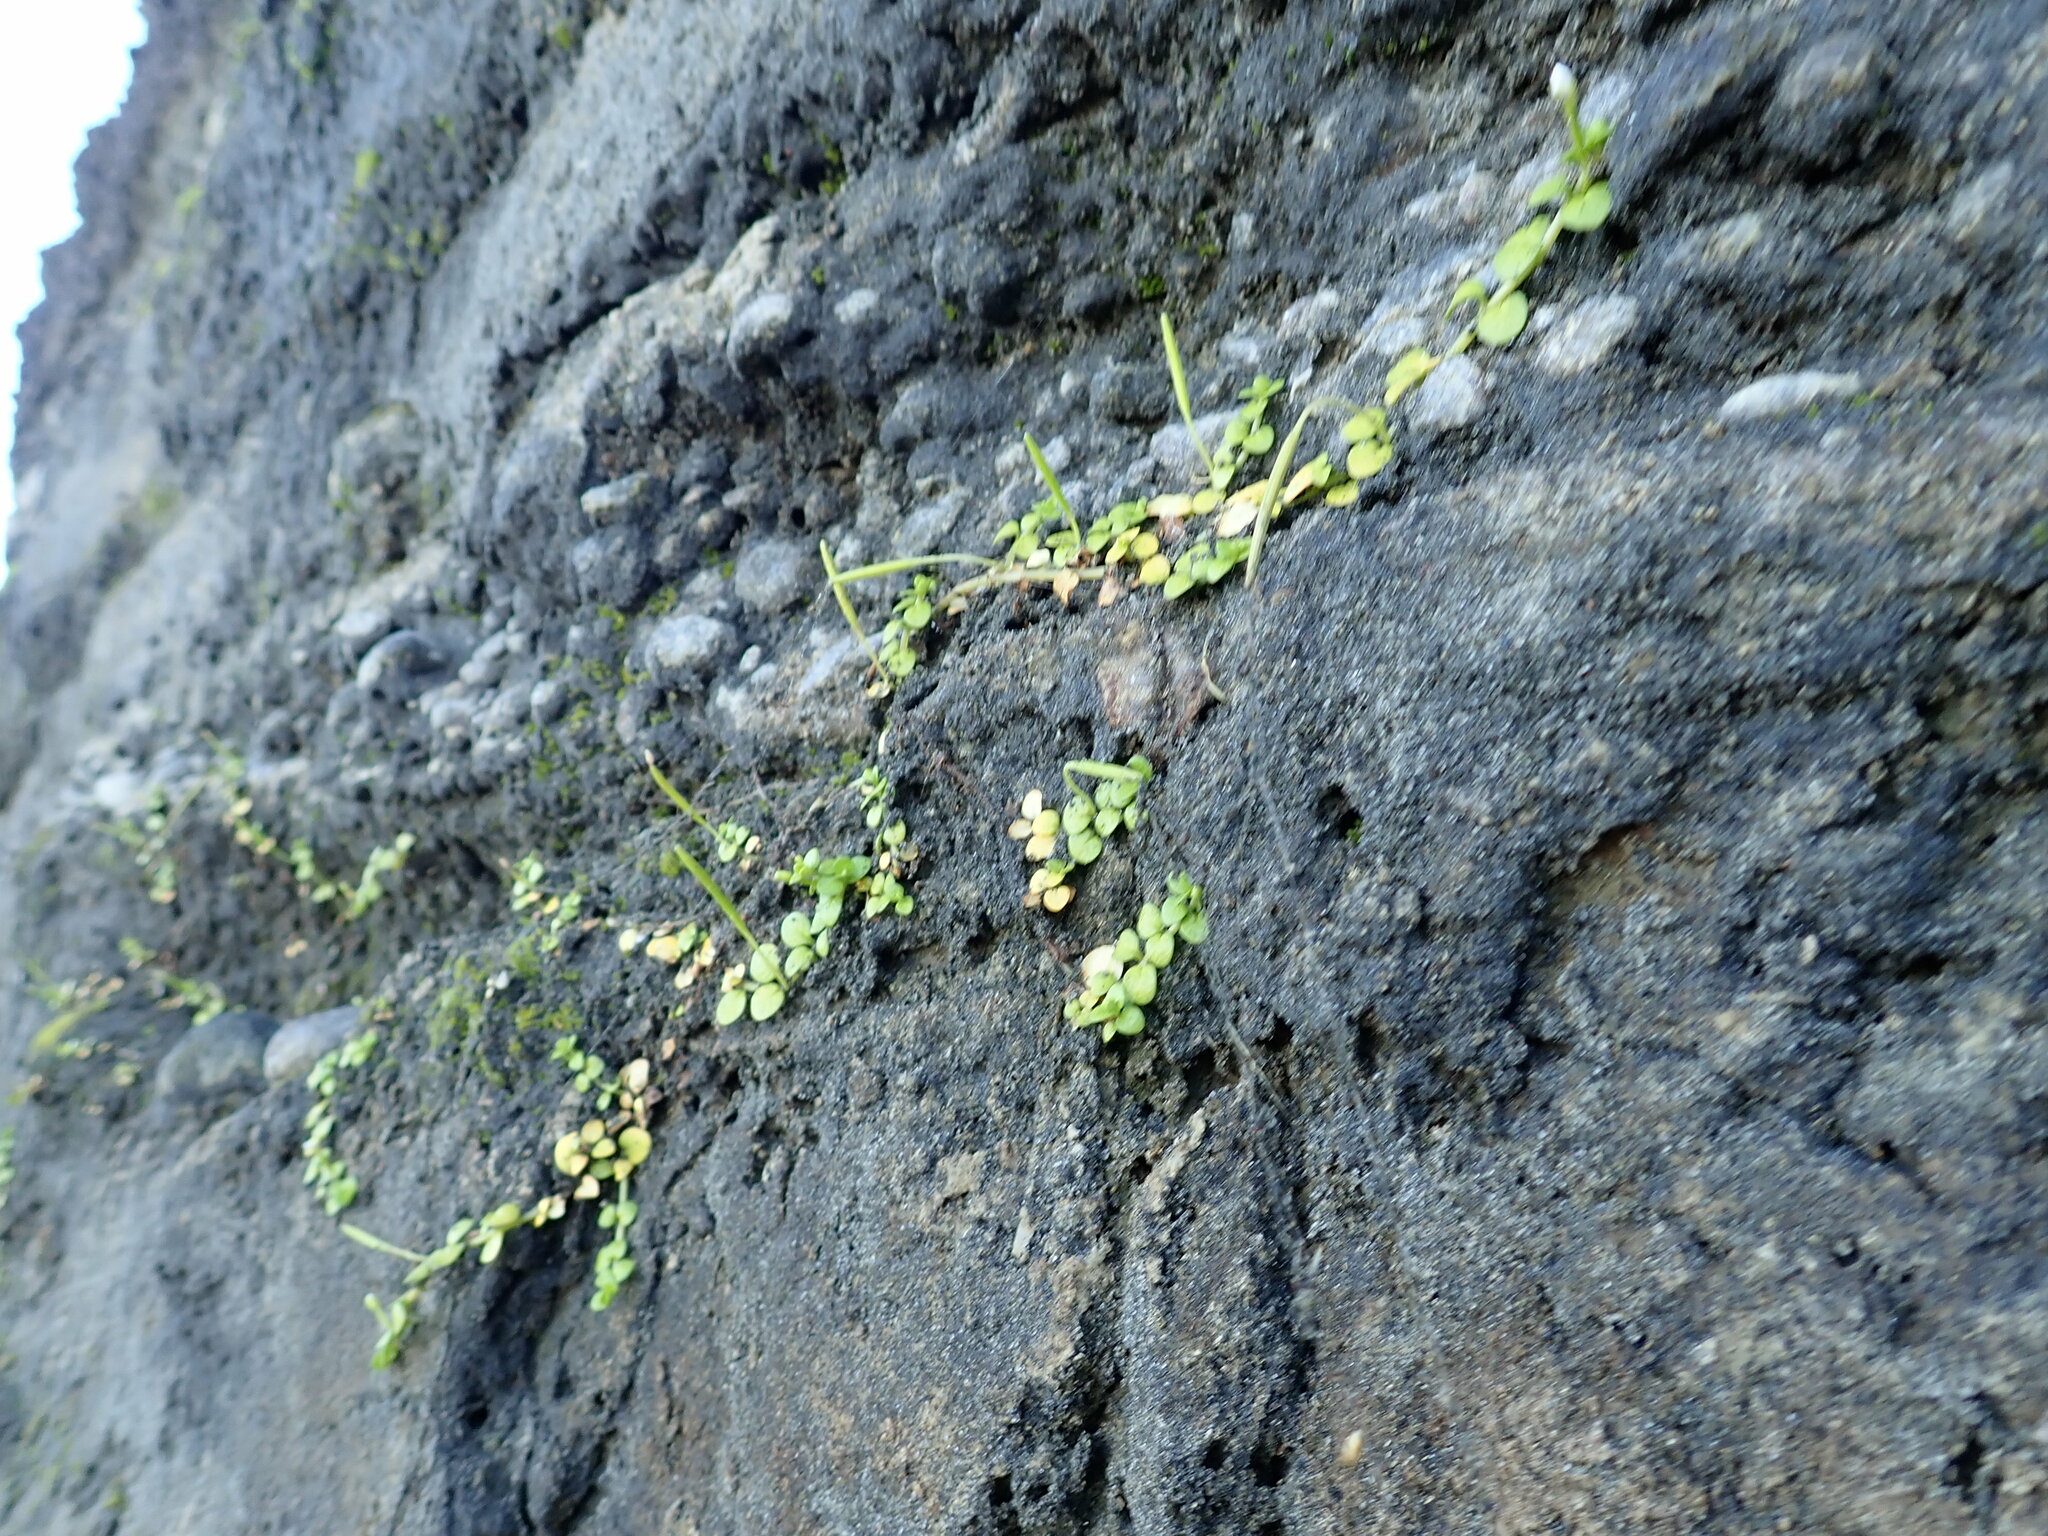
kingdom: Plantae
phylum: Tracheophyta
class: Magnoliopsida
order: Myrtales
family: Onagraceae
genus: Epilobium
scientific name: Epilobium komarovianum
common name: Bronzy willowherb
